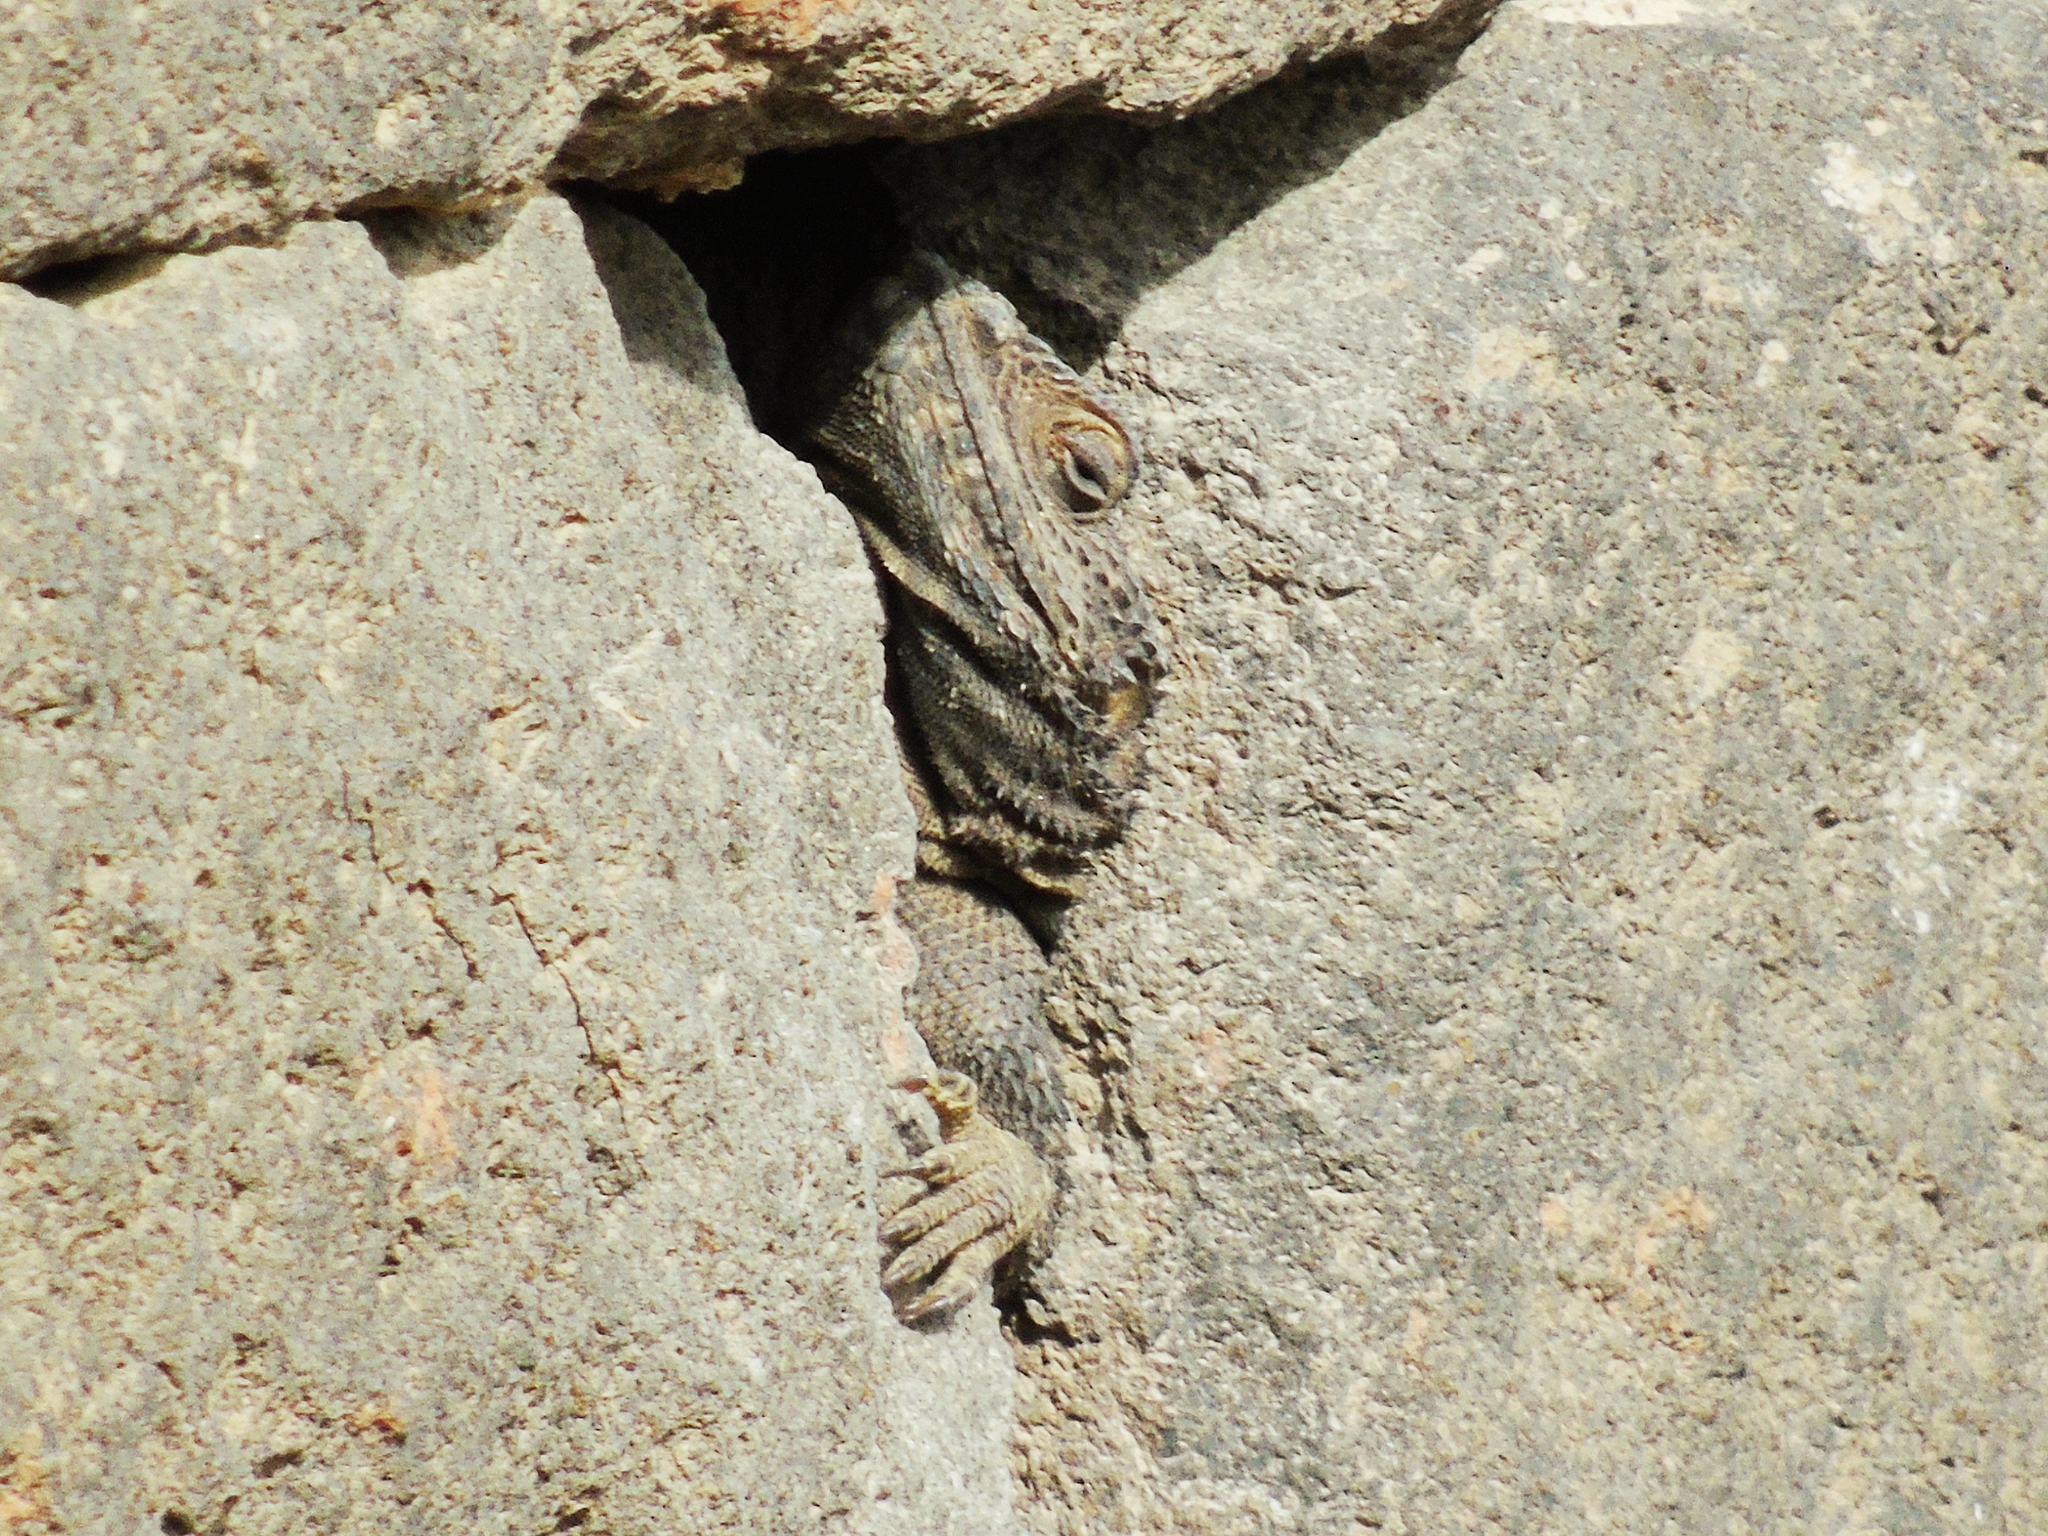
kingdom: Animalia
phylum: Chordata
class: Squamata
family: Agamidae
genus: Stellagama
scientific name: Stellagama stellio
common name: Starred agama
